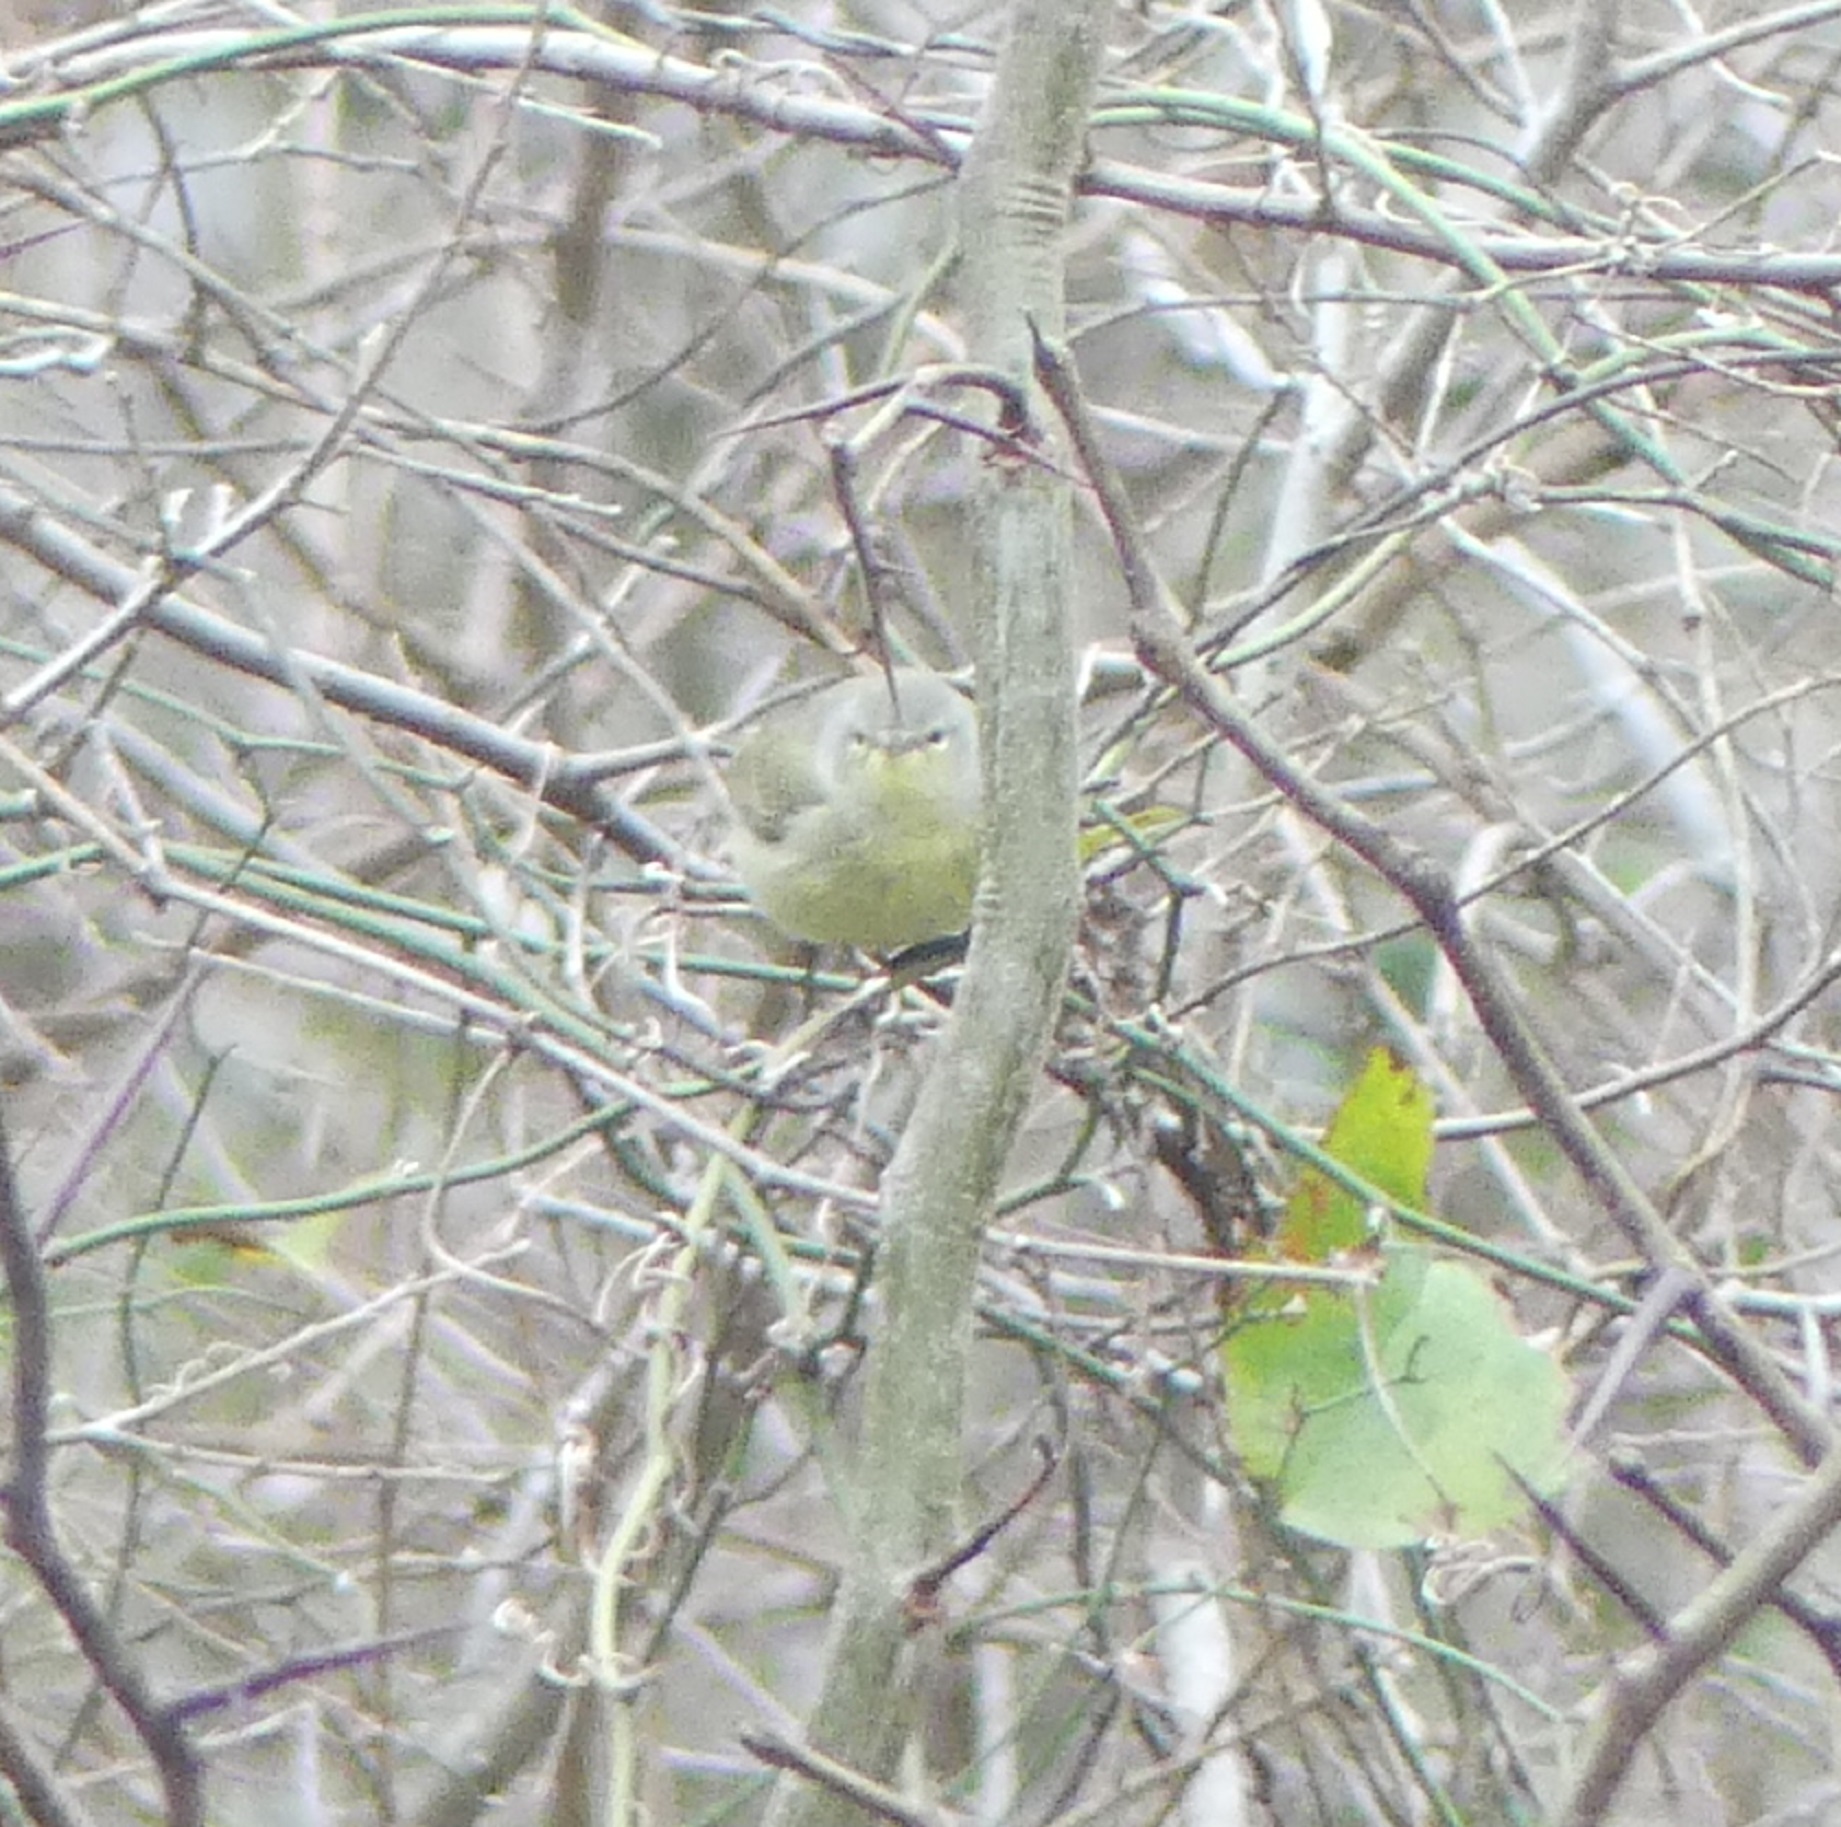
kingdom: Animalia
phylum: Chordata
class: Aves
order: Passeriformes
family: Parulidae
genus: Leiothlypis
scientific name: Leiothlypis celata
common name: Orange-crowned warbler
